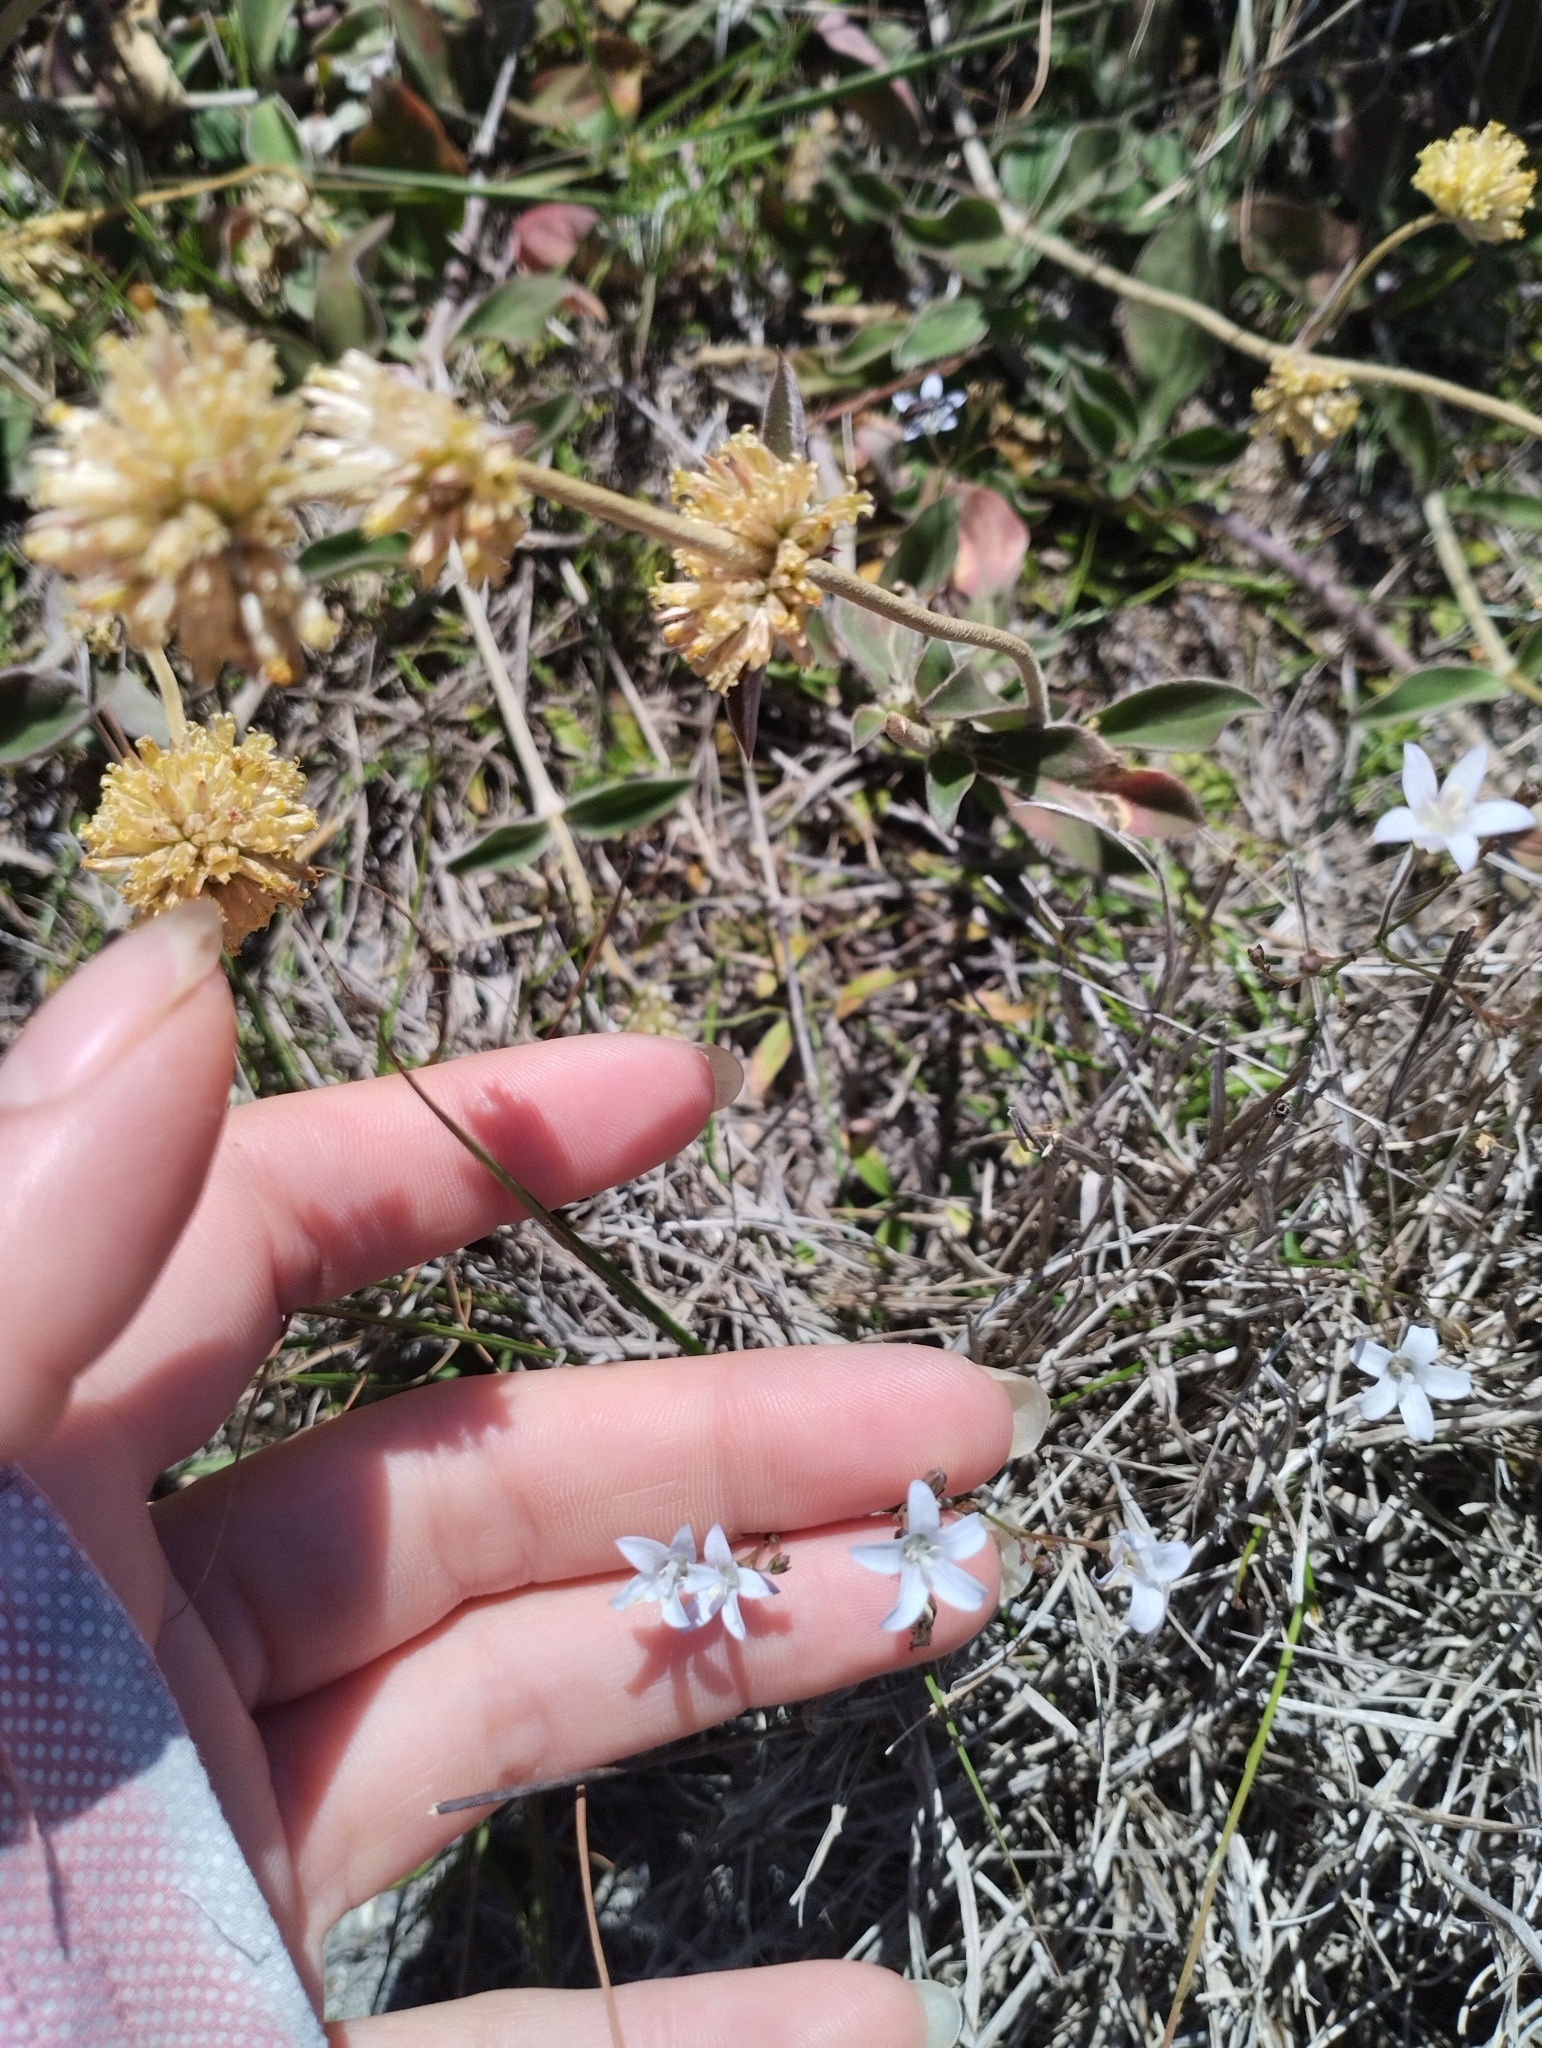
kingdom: Plantae
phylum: Tracheophyta
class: Magnoliopsida
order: Asterales
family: Campanulaceae
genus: Wahlenbergia
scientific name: Wahlenbergia linarioides
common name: Tuffybells
